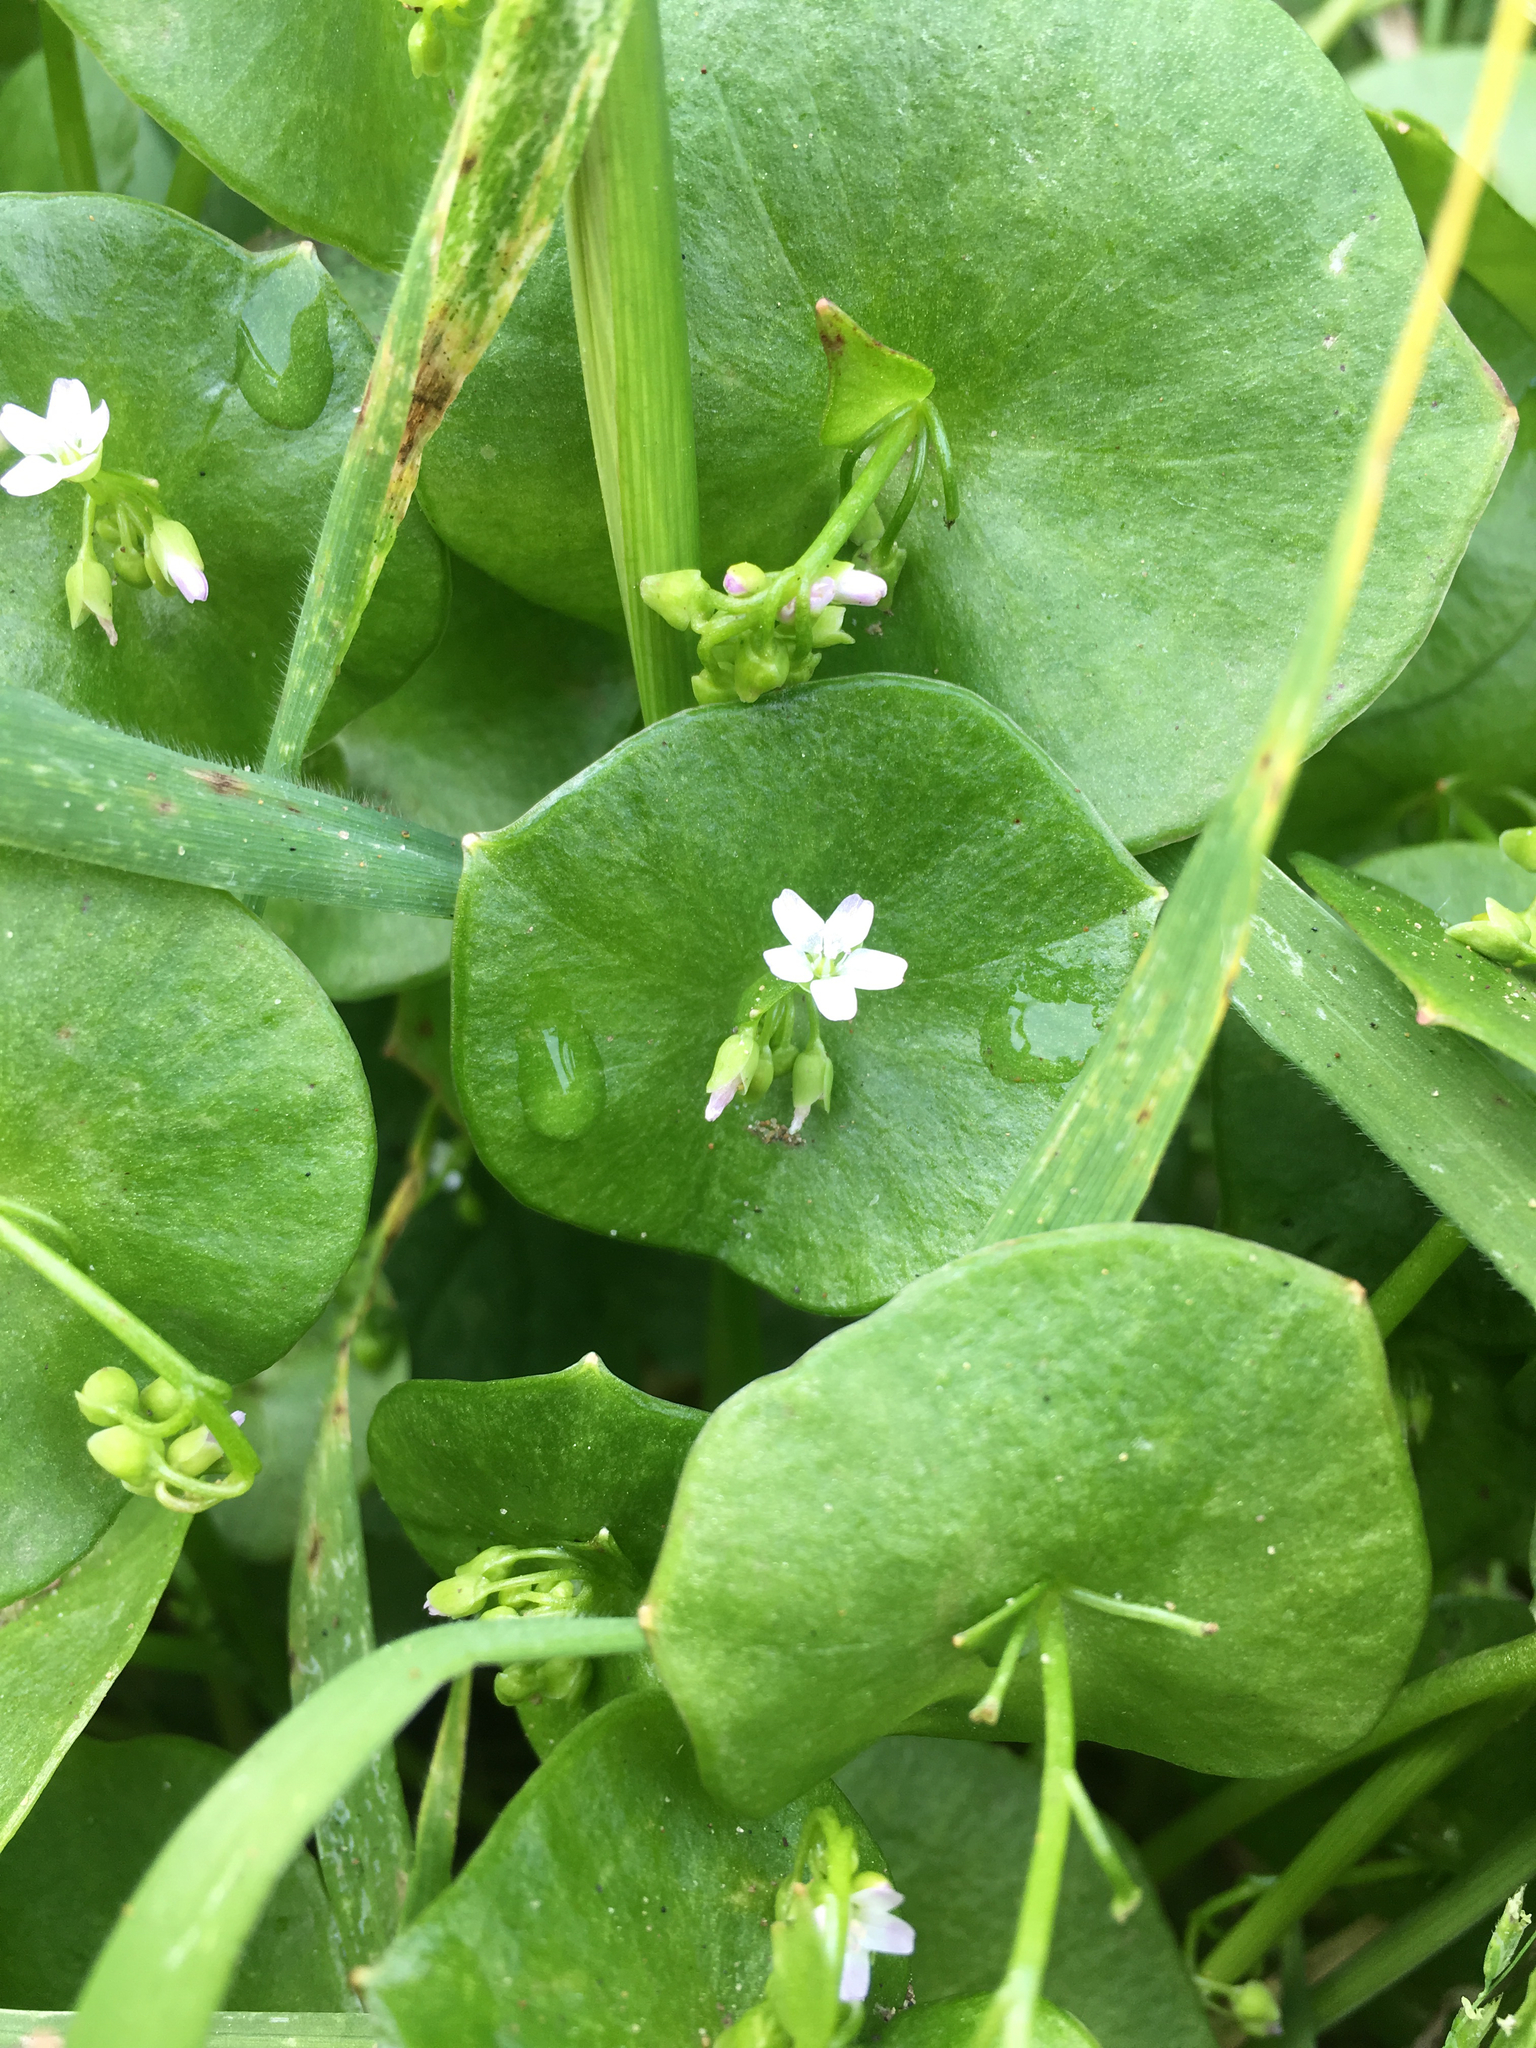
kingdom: Plantae
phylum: Tracheophyta
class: Magnoliopsida
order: Caryophyllales
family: Montiaceae
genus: Claytonia
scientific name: Claytonia perfoliata
